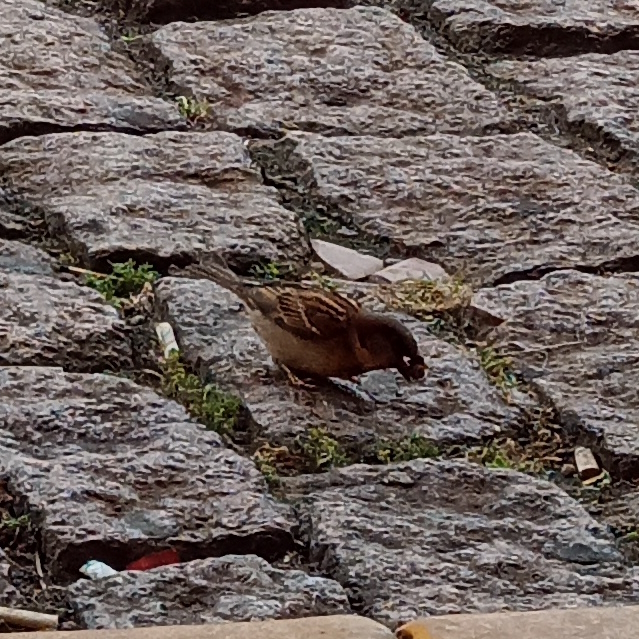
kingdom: Animalia
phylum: Chordata
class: Aves
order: Passeriformes
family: Passeridae
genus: Passer
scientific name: Passer domesticus
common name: House sparrow
